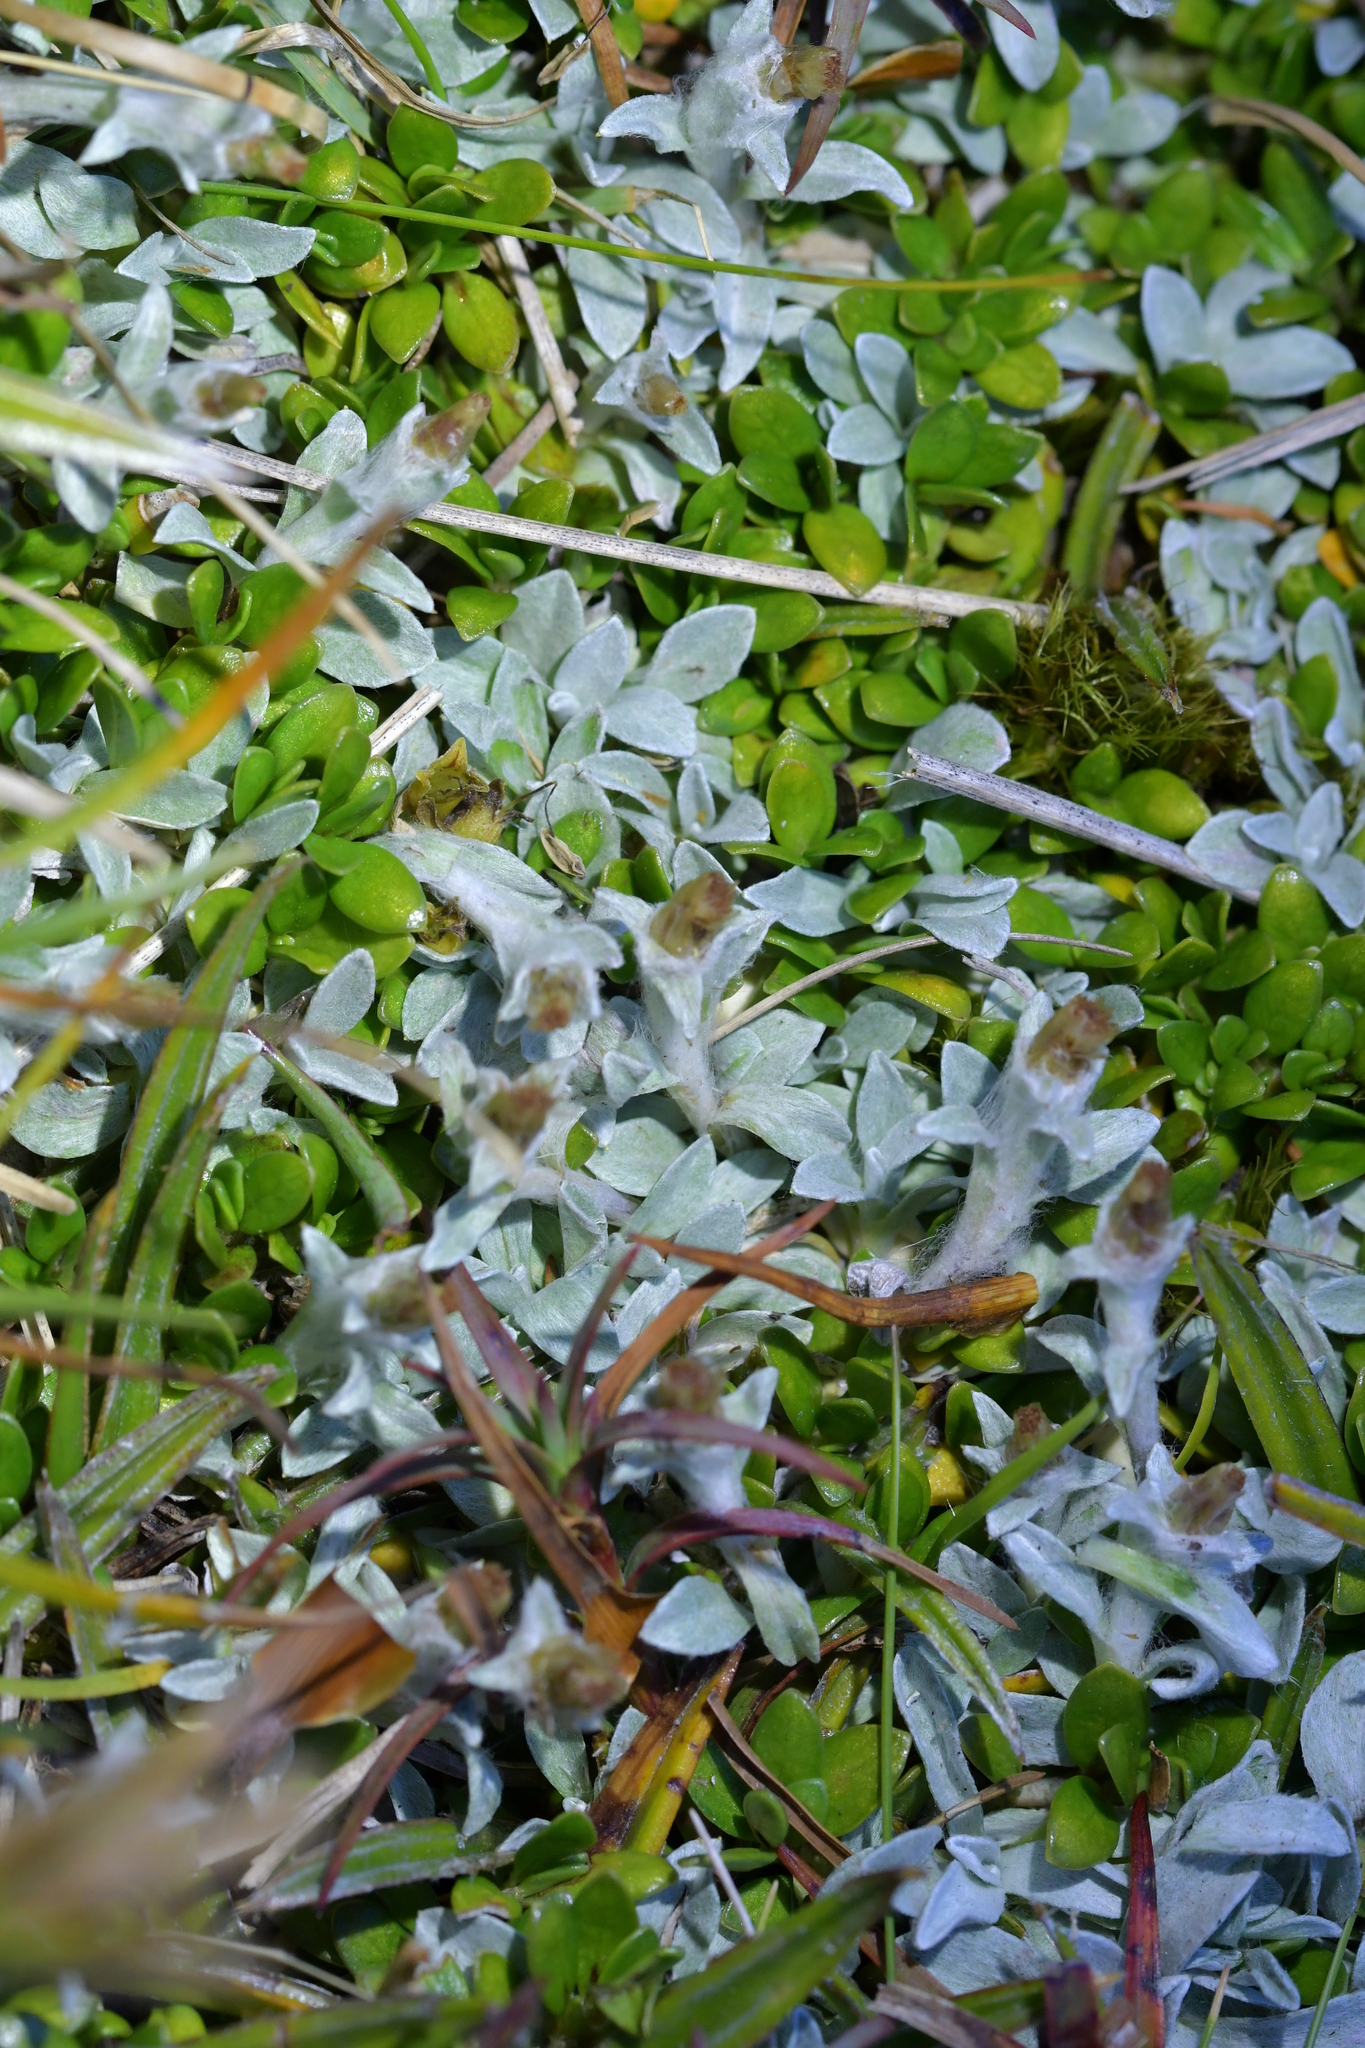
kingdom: Plantae
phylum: Tracheophyta
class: Magnoliopsida
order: Asterales
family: Asteraceae
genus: Argyrotegium
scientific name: Argyrotegium mackayi
